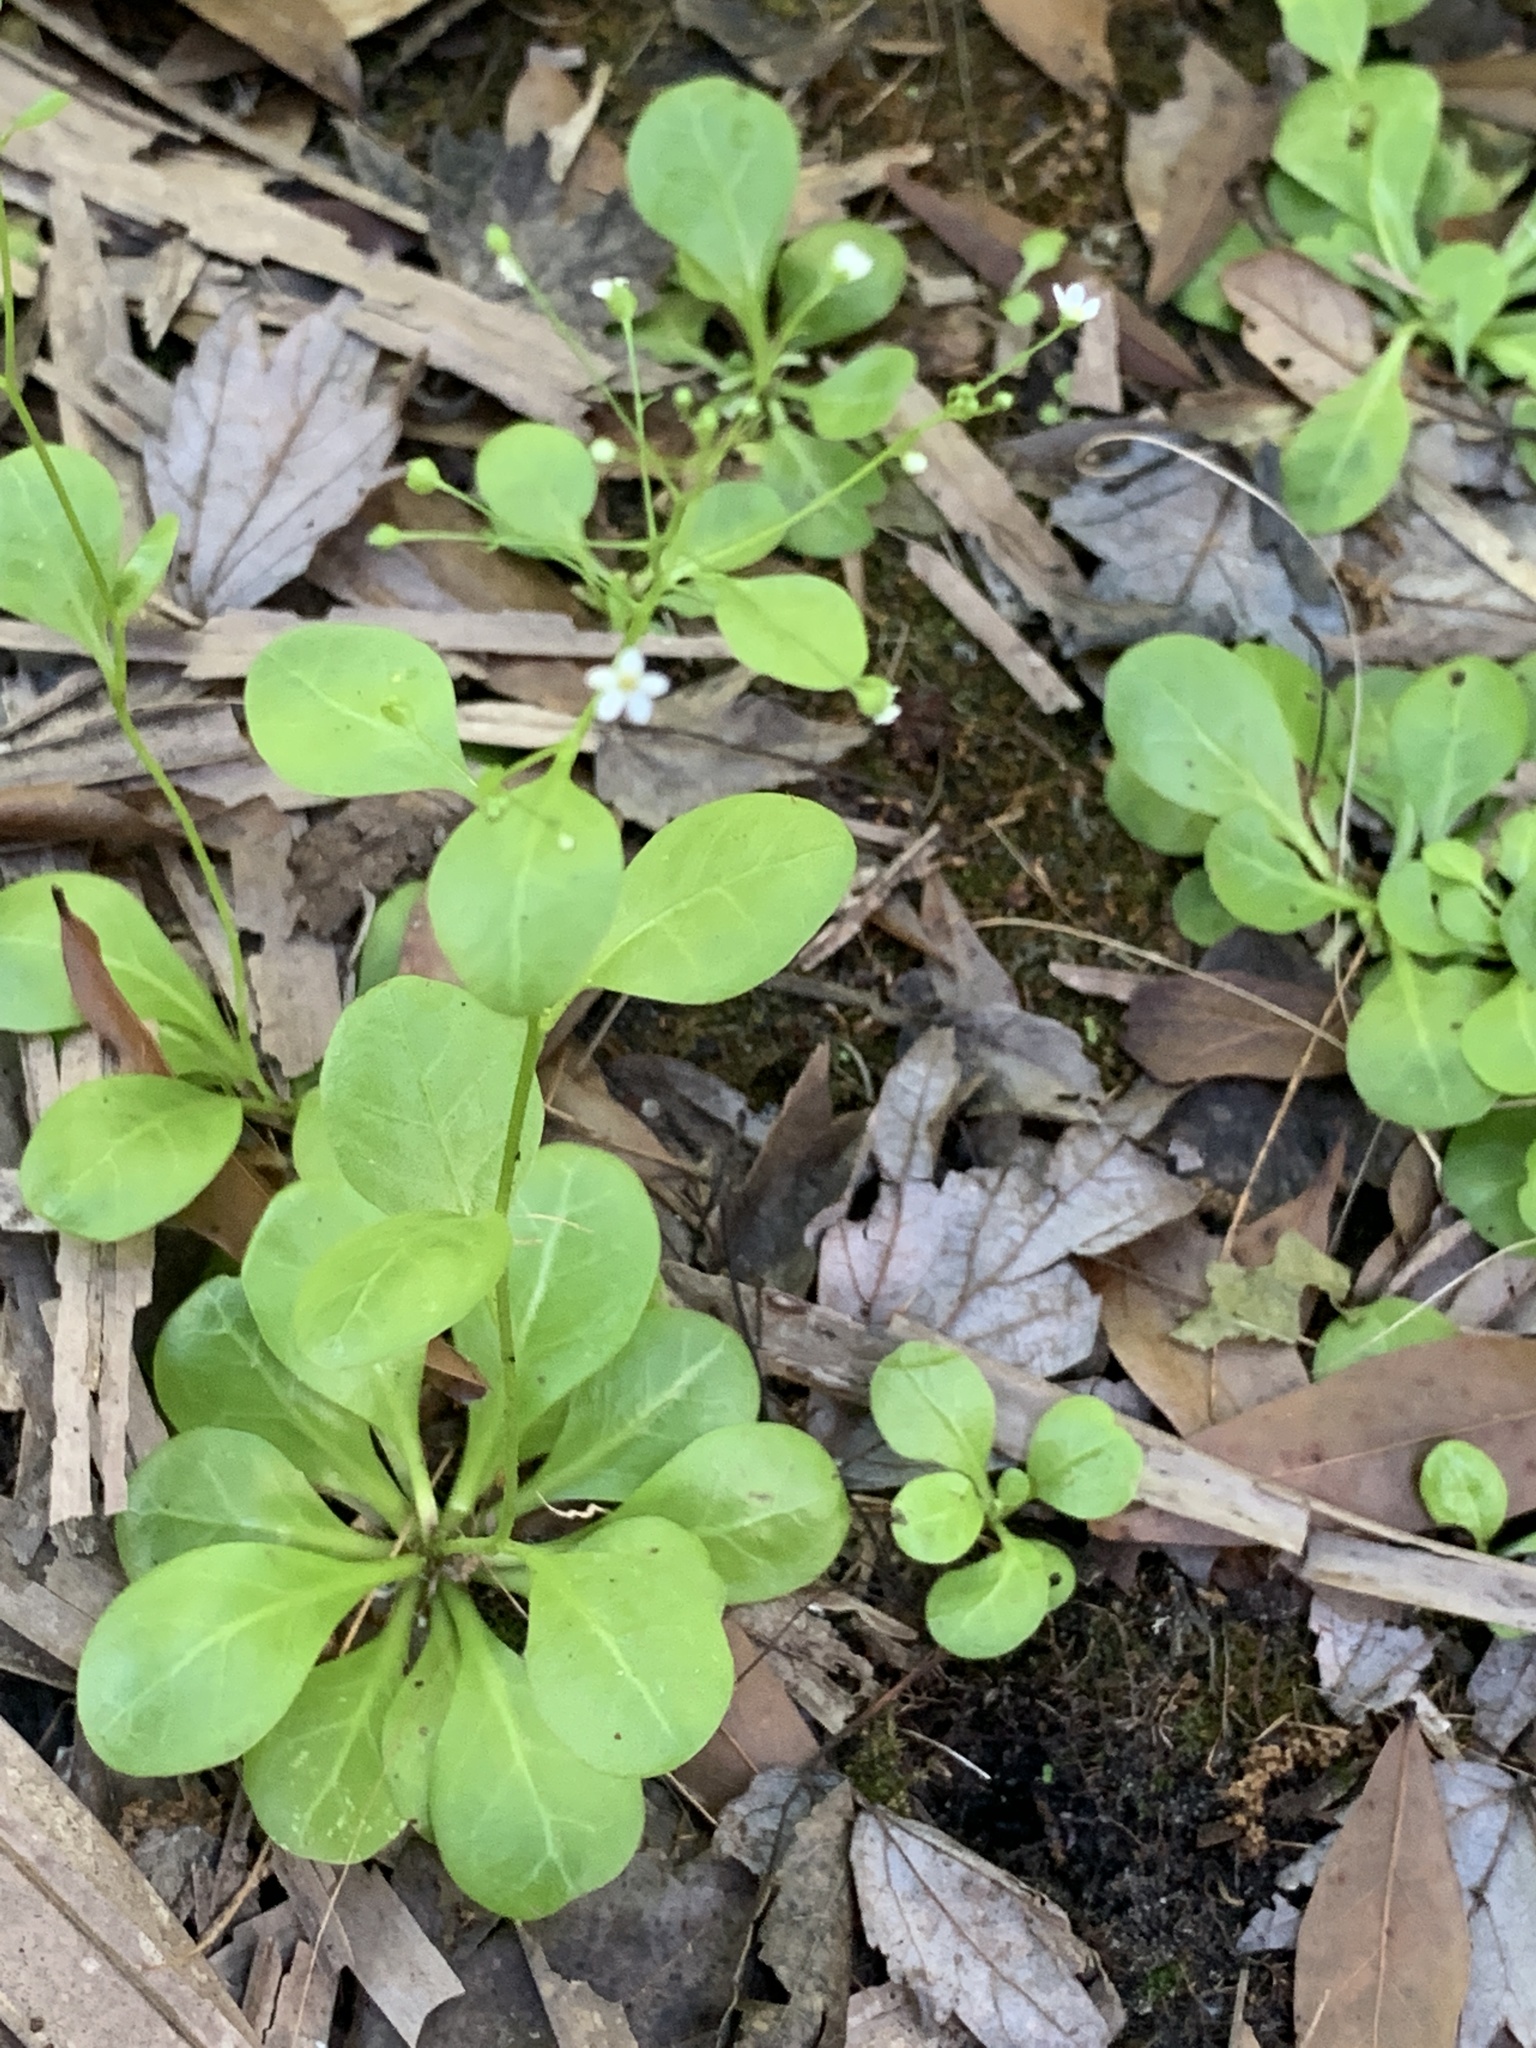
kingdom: Plantae
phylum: Tracheophyta
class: Magnoliopsida
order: Ericales
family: Primulaceae
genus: Samolus
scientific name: Samolus parviflorus
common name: False water pimpernel
